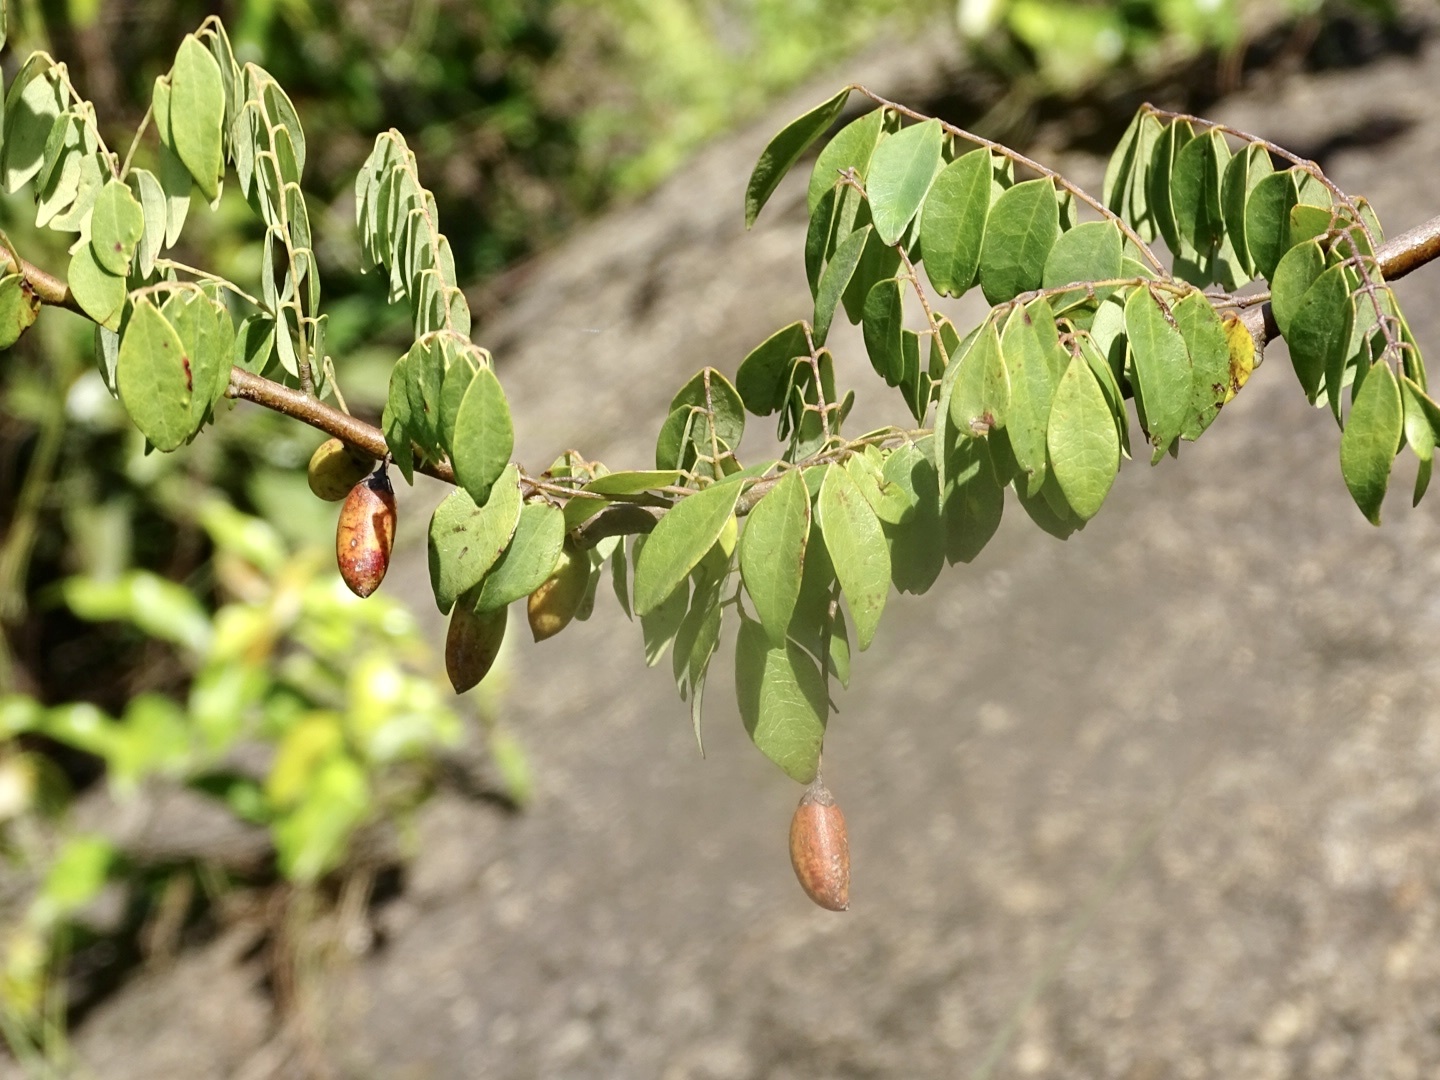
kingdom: Plantae
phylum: Tracheophyta
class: Magnoliopsida
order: Oxalidales
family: Connaraceae
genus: Rourea
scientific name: Rourea microphylla
